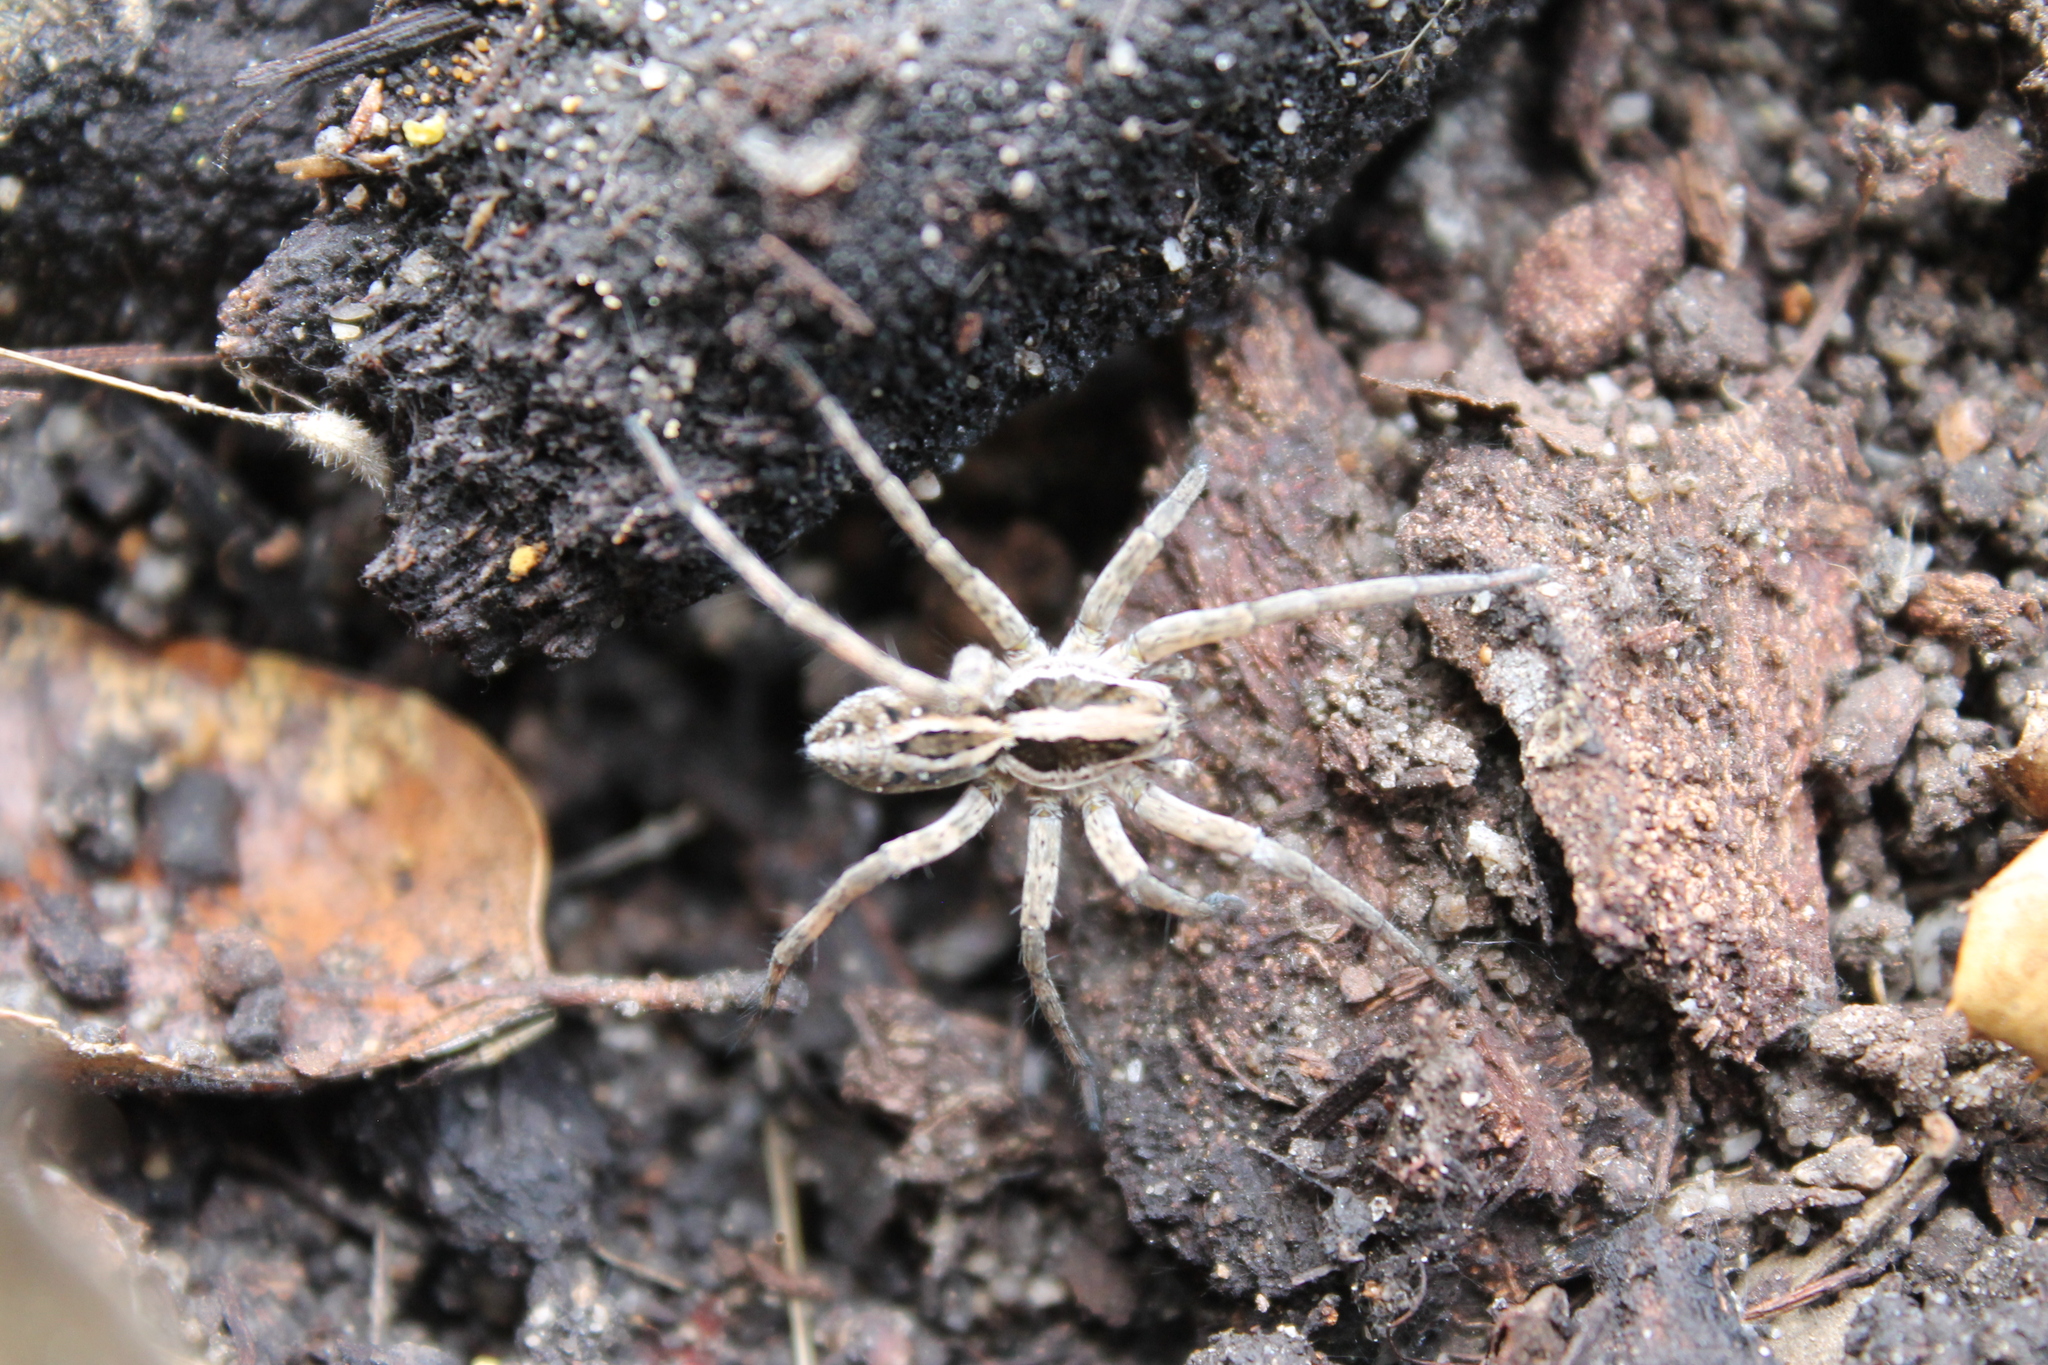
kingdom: Animalia
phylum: Arthropoda
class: Arachnida
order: Araneae
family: Lycosidae
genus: Schizocosa
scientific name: Schizocosa mccooki
